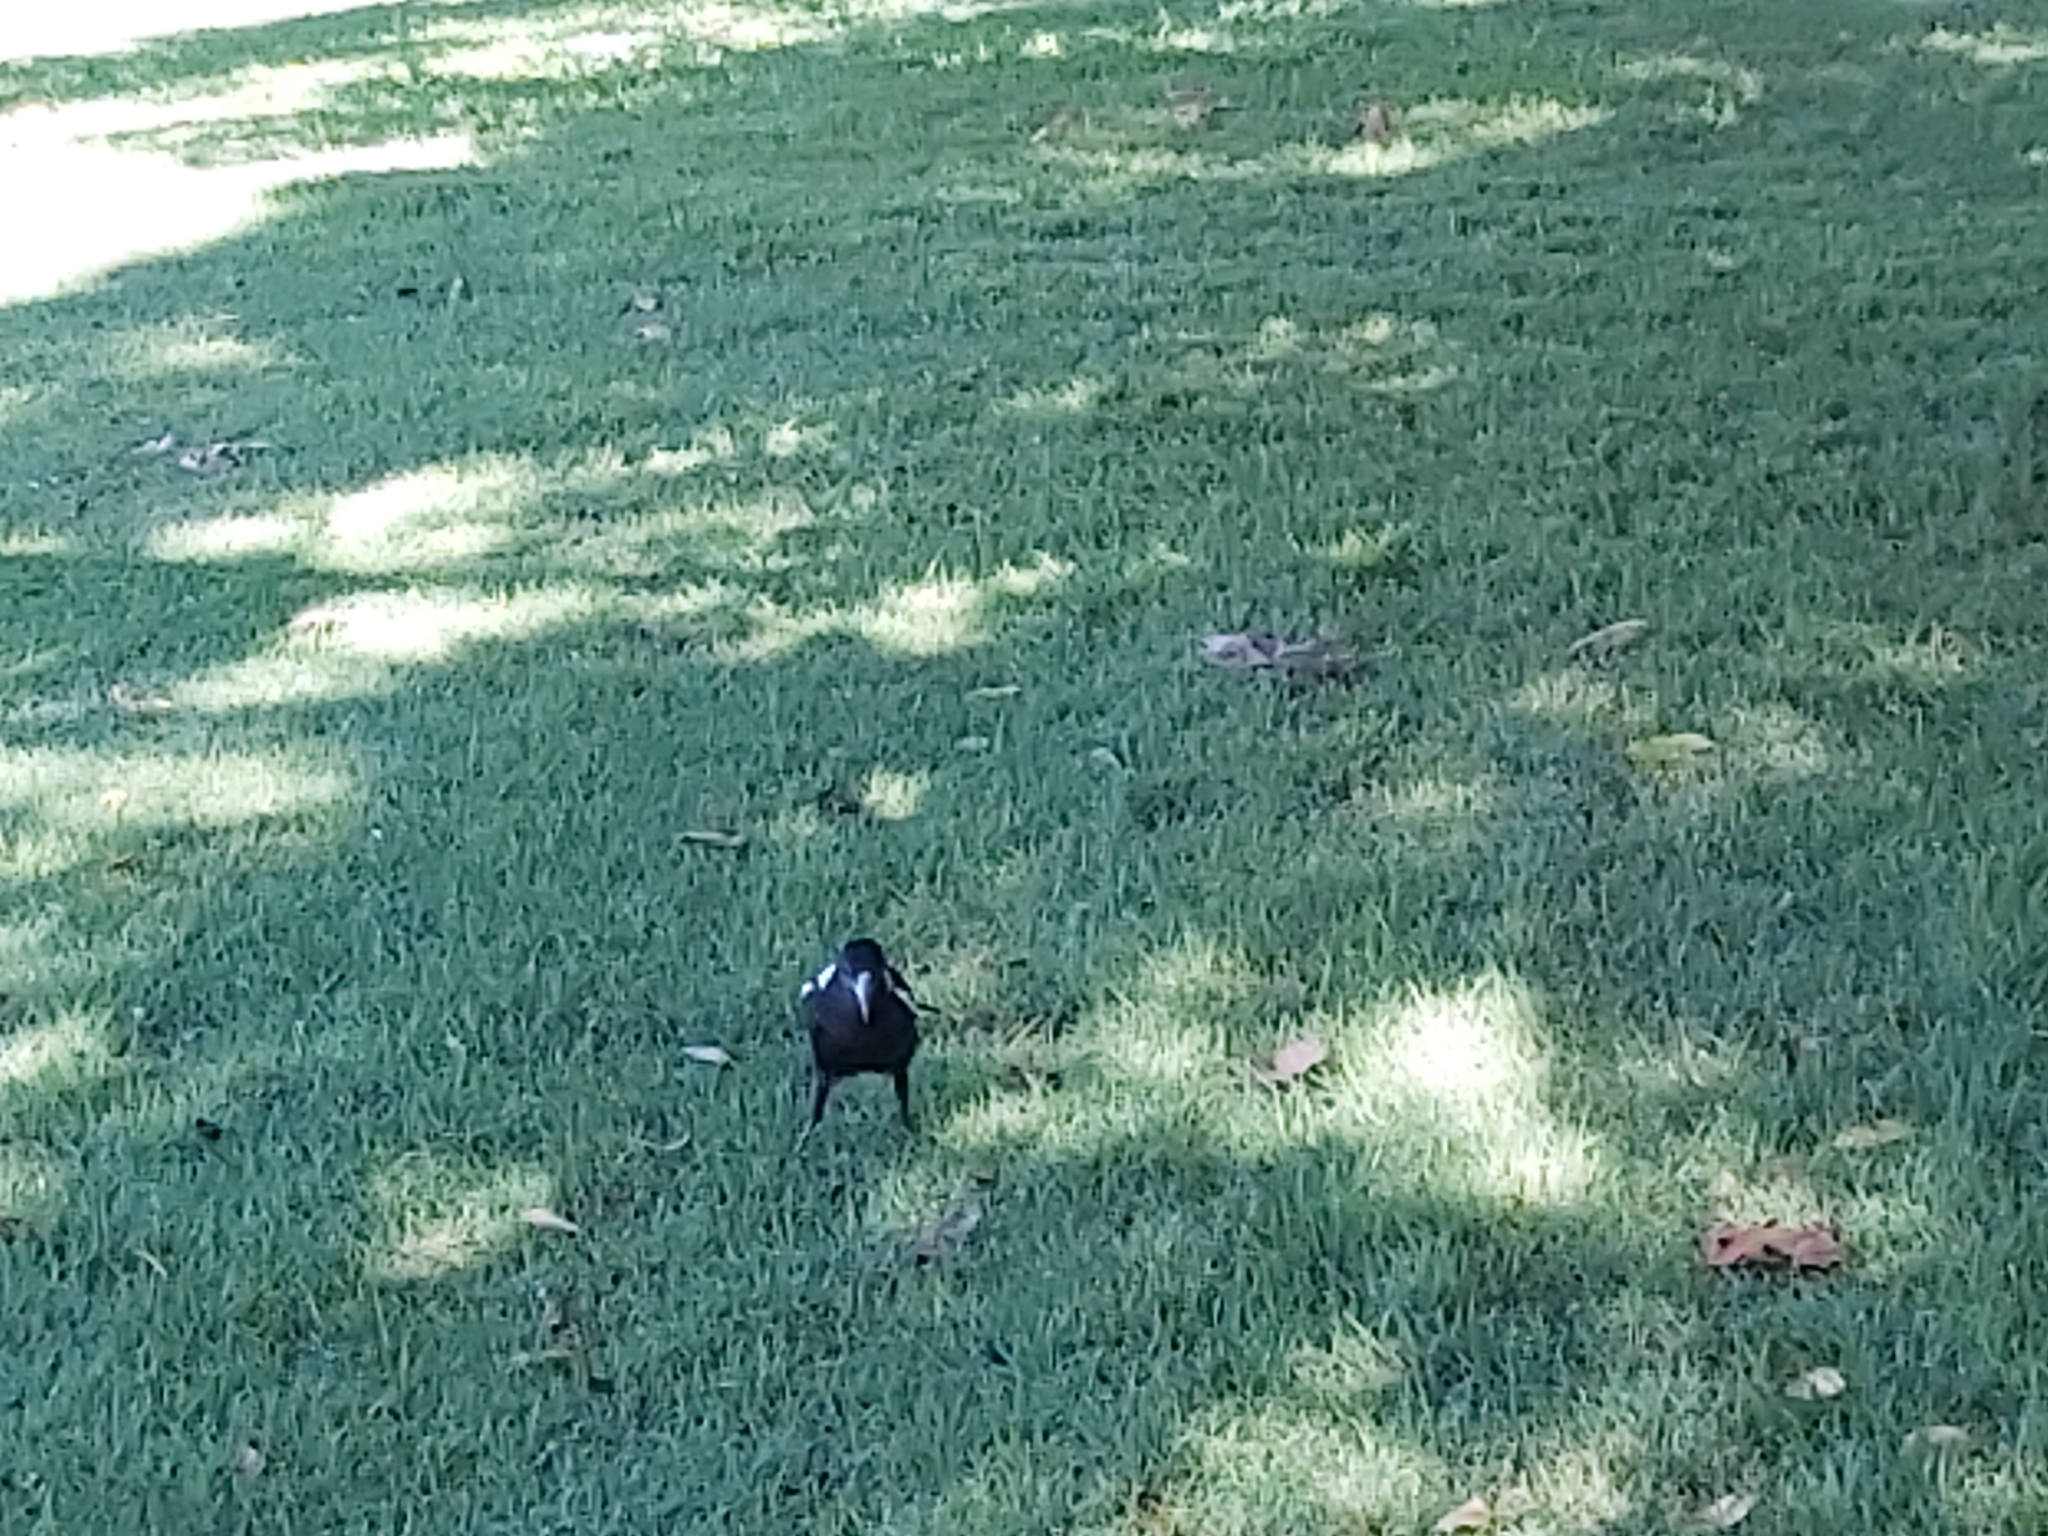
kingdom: Animalia
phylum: Chordata
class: Aves
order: Passeriformes
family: Cracticidae
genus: Gymnorhina
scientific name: Gymnorhina tibicen
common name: Australian magpie
